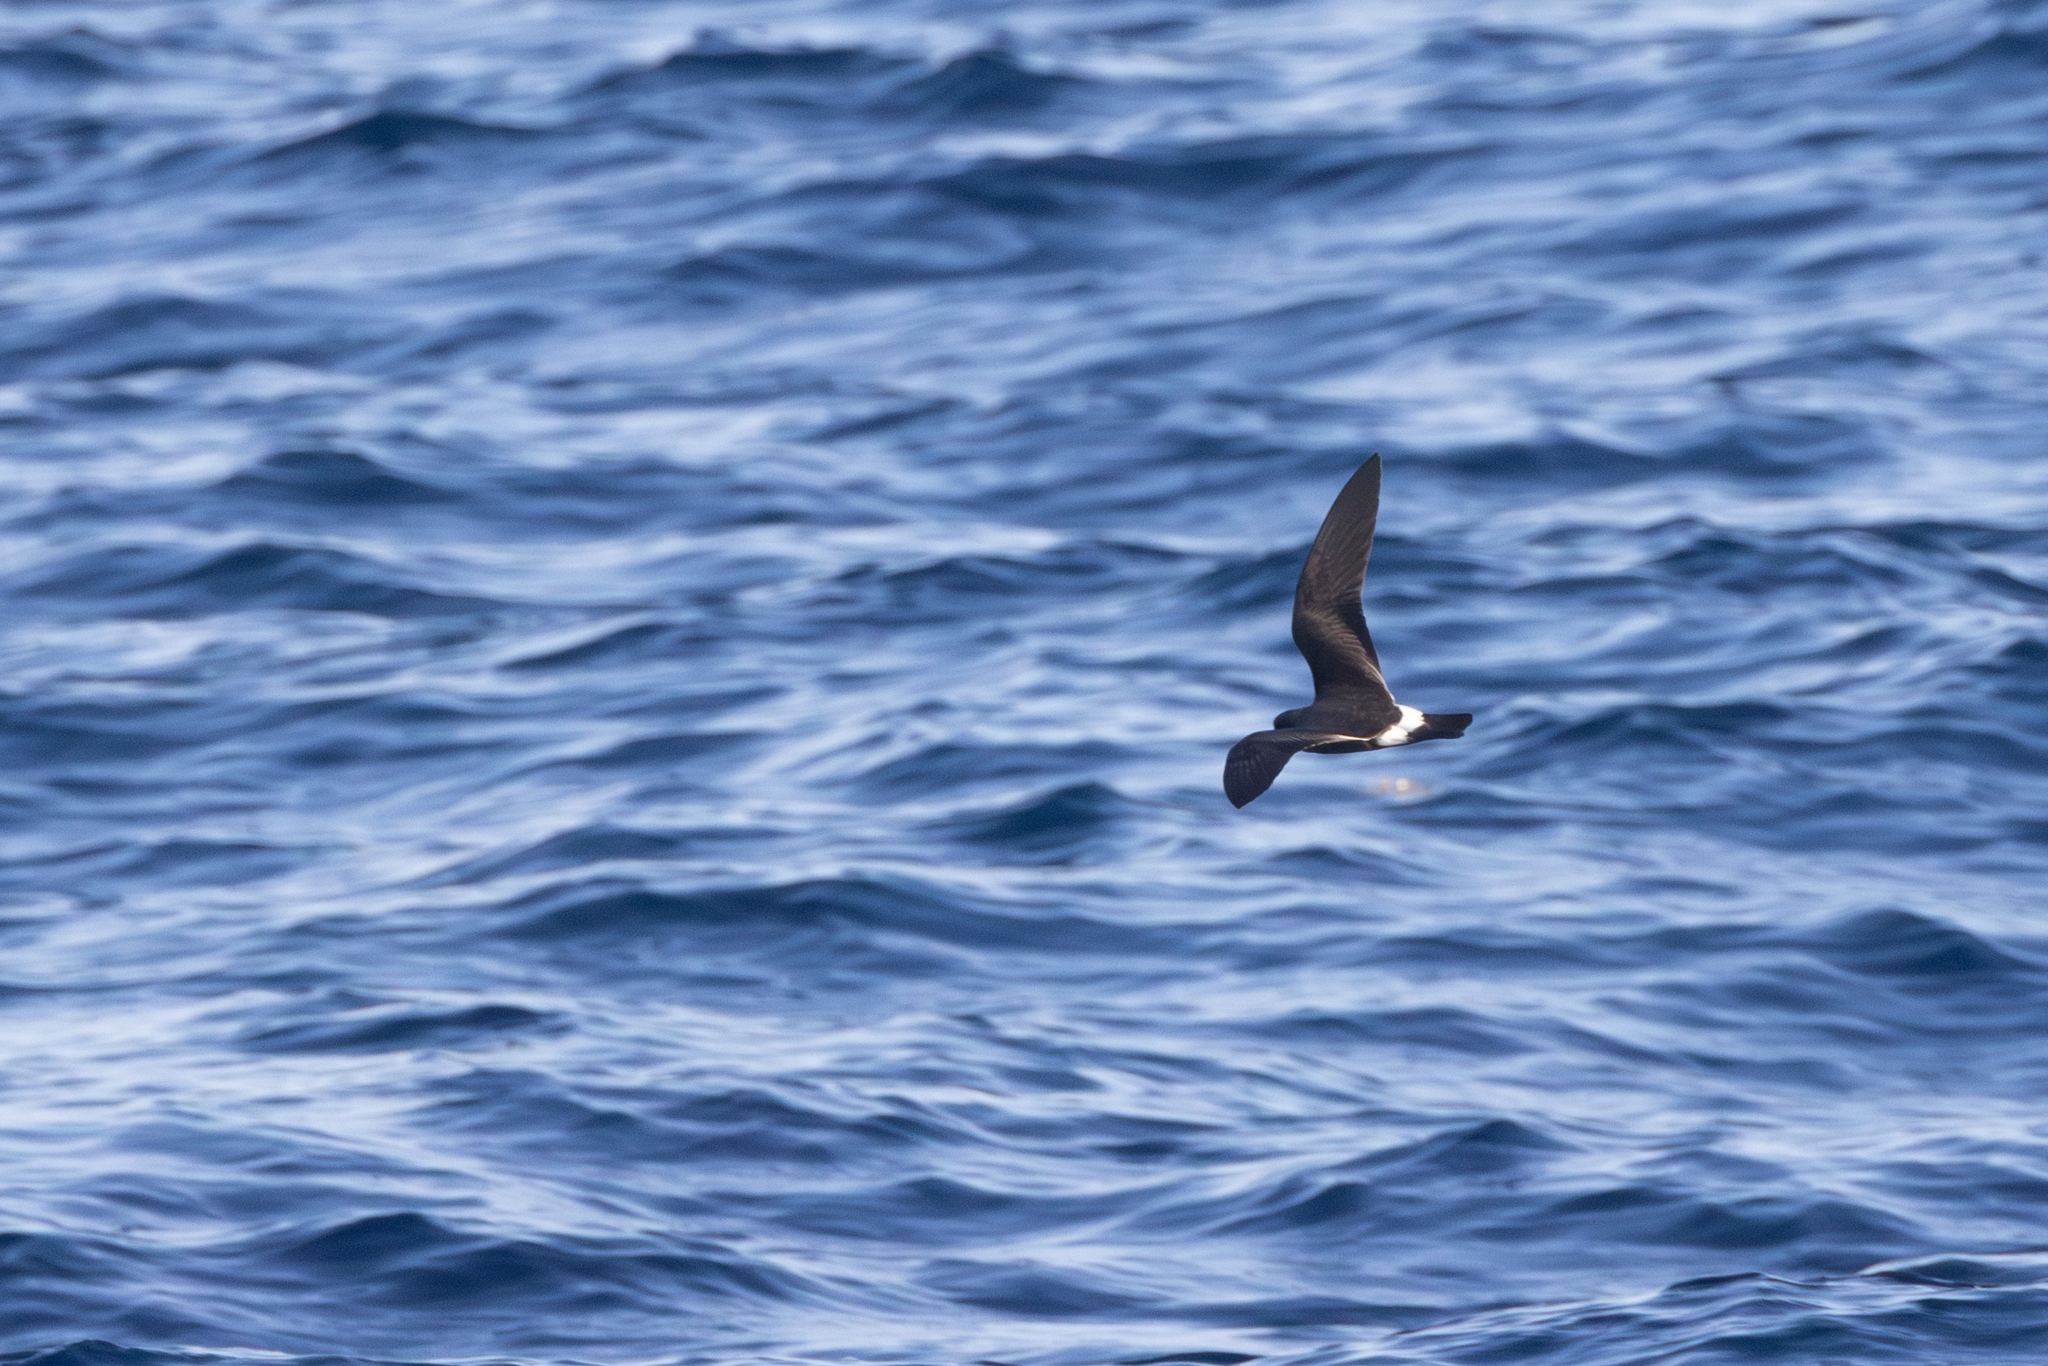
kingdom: Animalia
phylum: Chordata
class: Aves
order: Procellariiformes
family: Hydrobatidae
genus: Oceanodroma
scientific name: Oceanodroma castro
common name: Band-rumped storm-petrel
